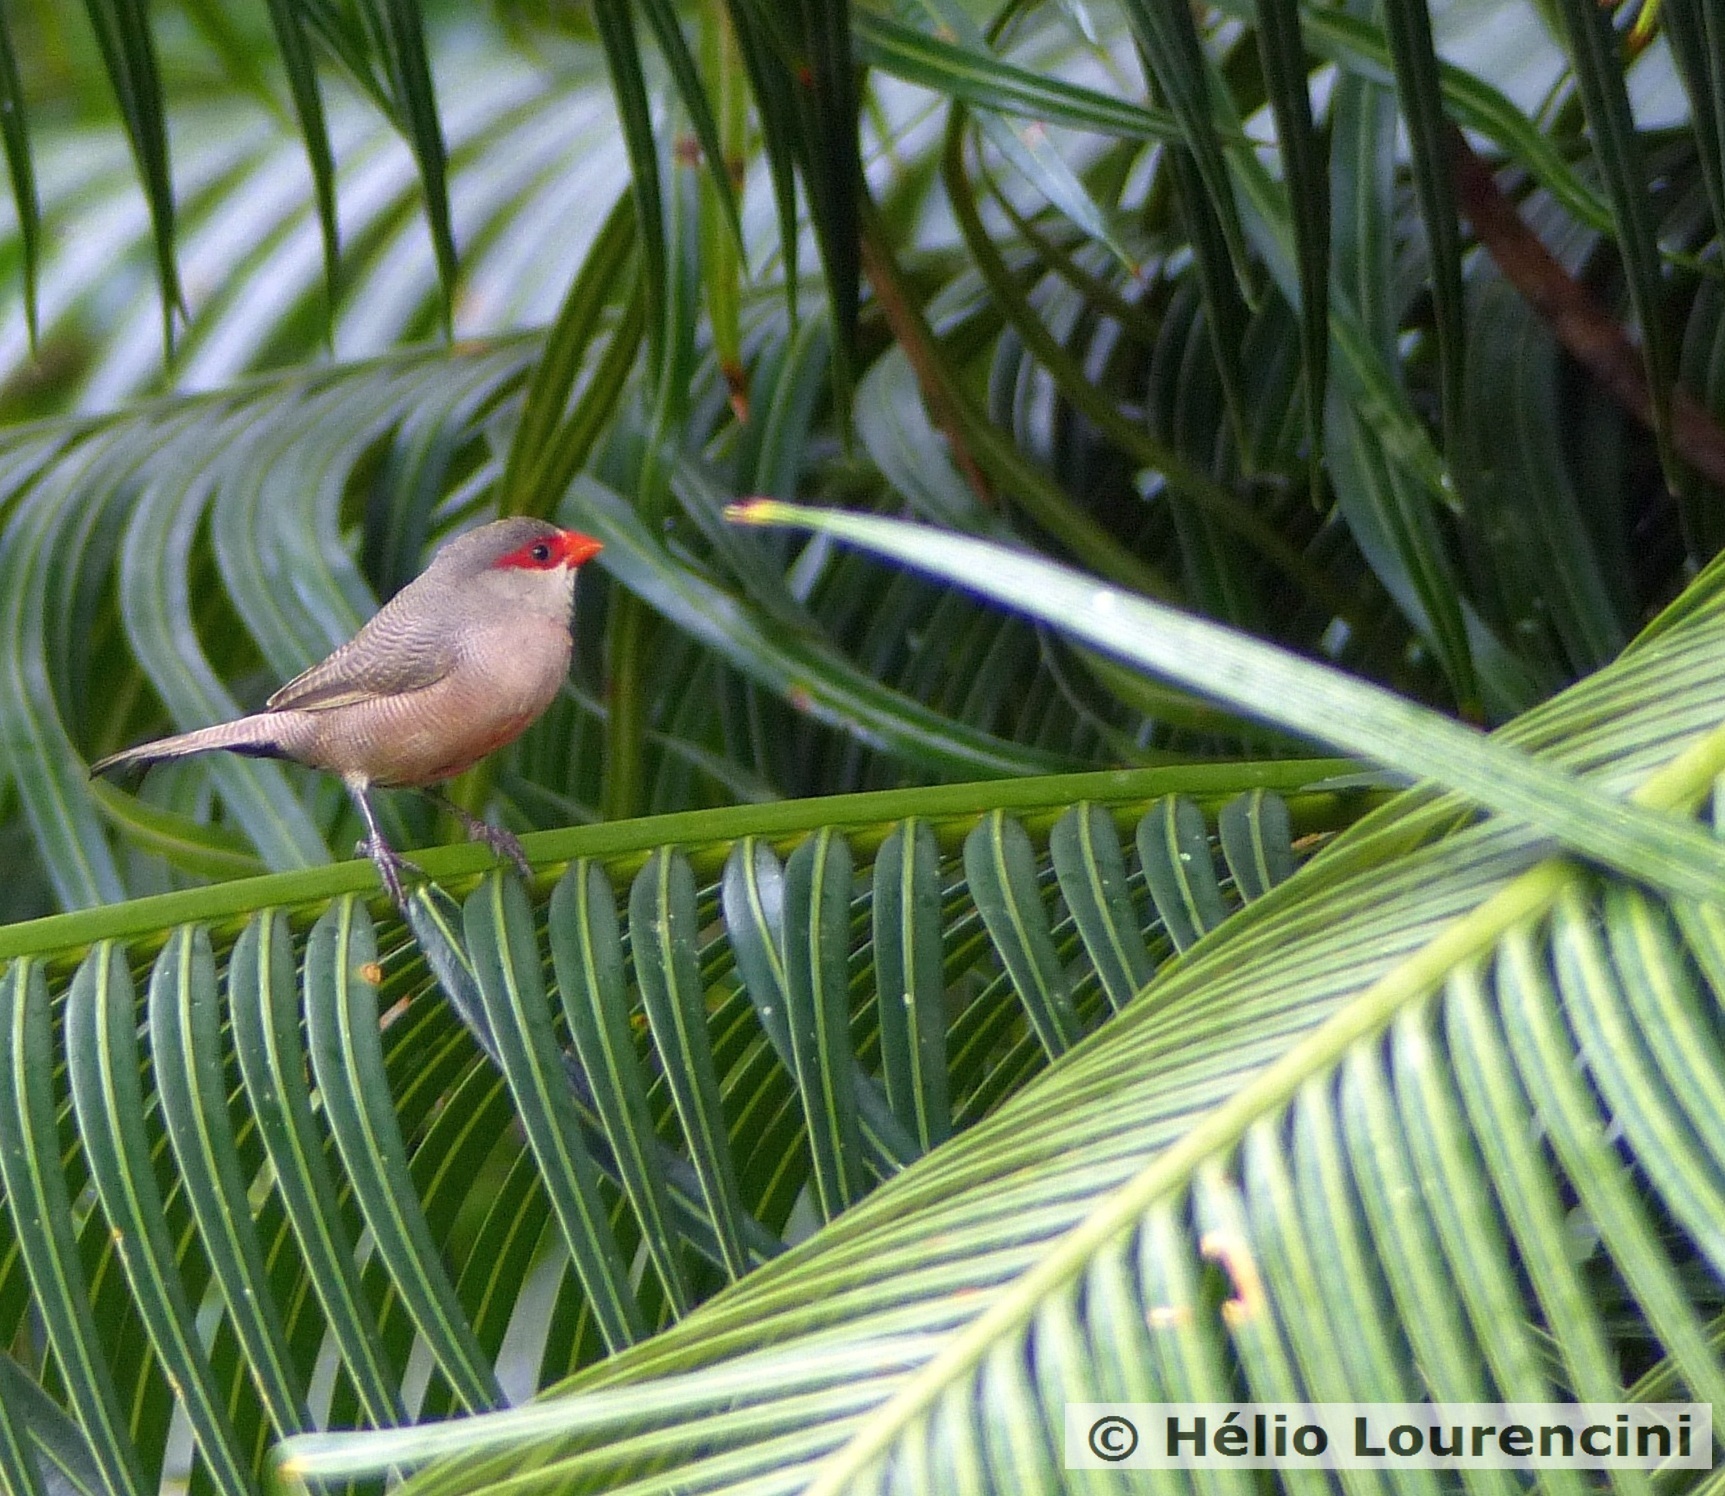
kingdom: Animalia
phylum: Chordata
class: Aves
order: Passeriformes
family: Estrildidae
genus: Estrilda
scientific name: Estrilda astrild
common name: Common waxbill
